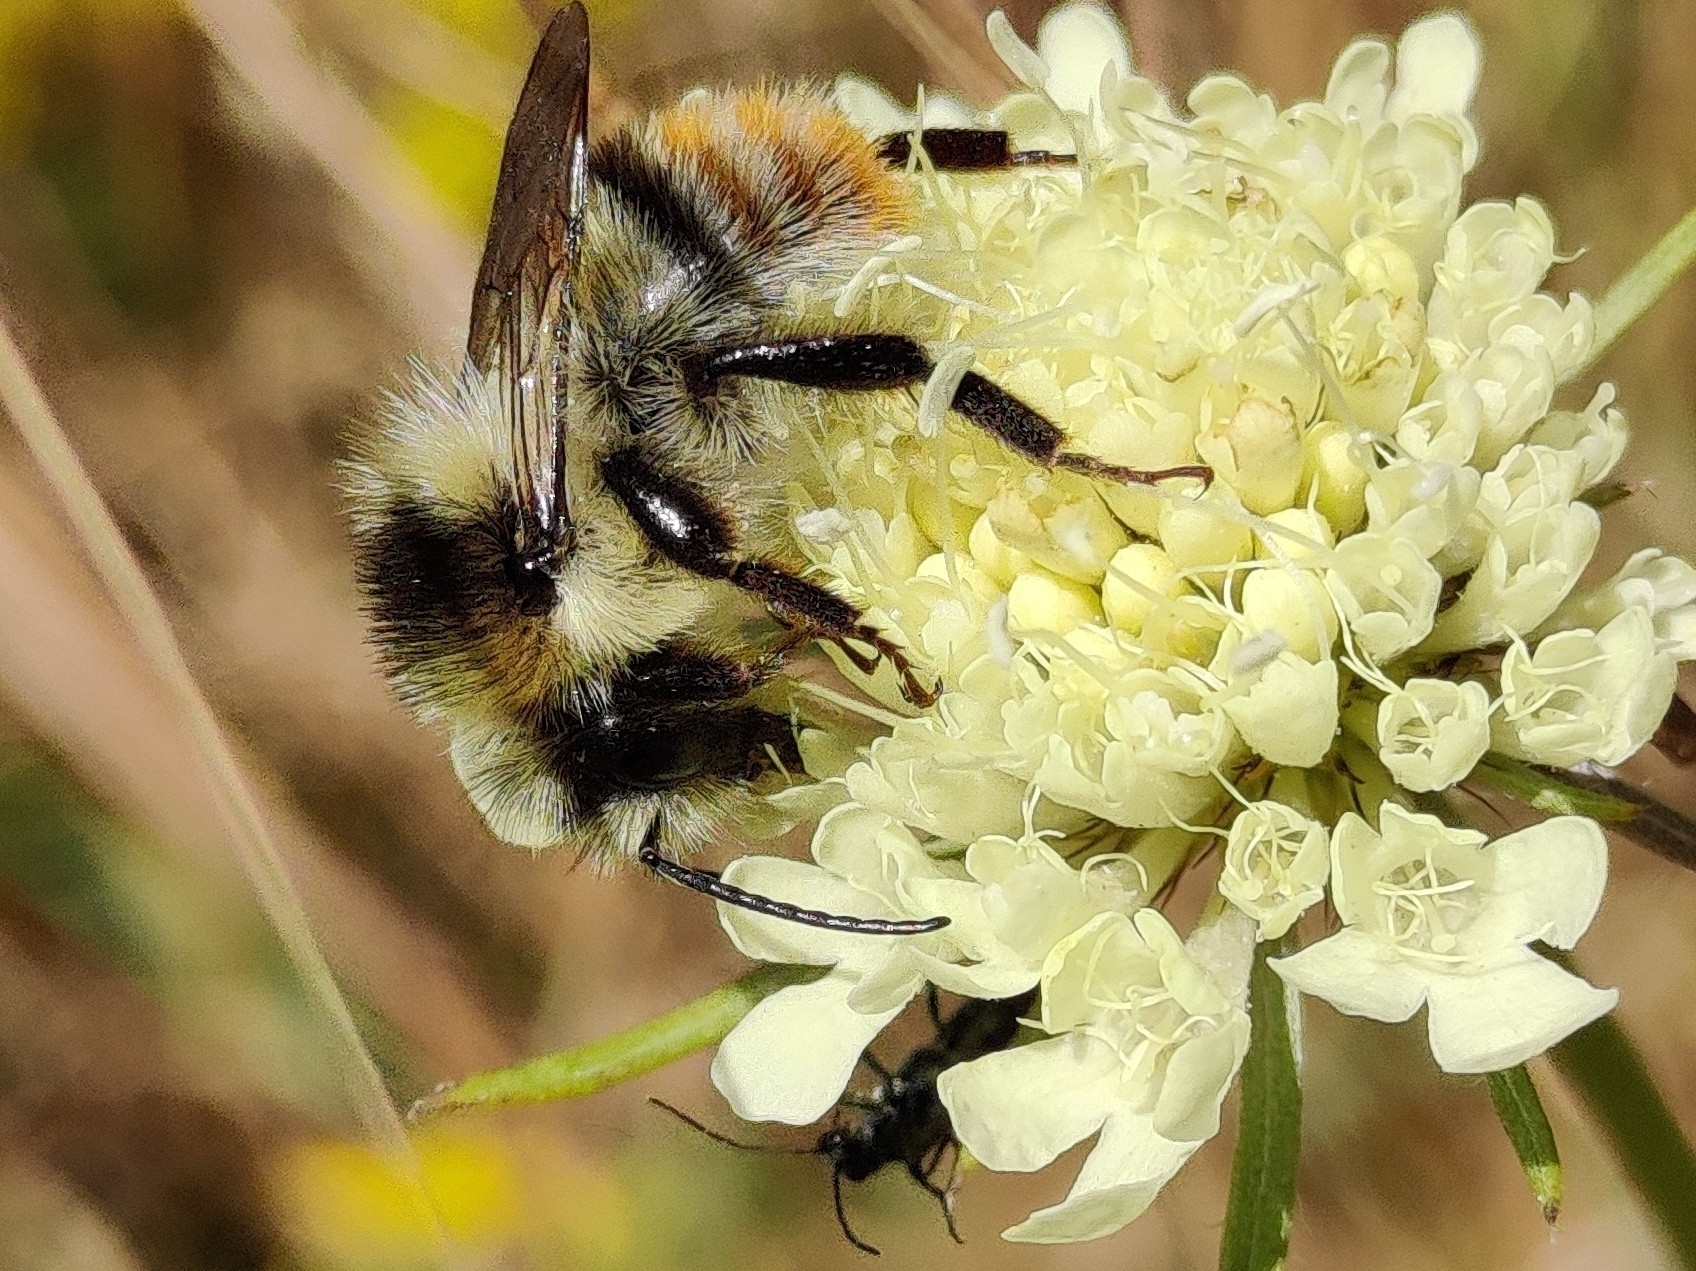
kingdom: Animalia
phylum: Arthropoda
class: Insecta
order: Hymenoptera
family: Apidae
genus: Bombus
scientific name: Bombus sylvarum
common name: Shrill carder bee
